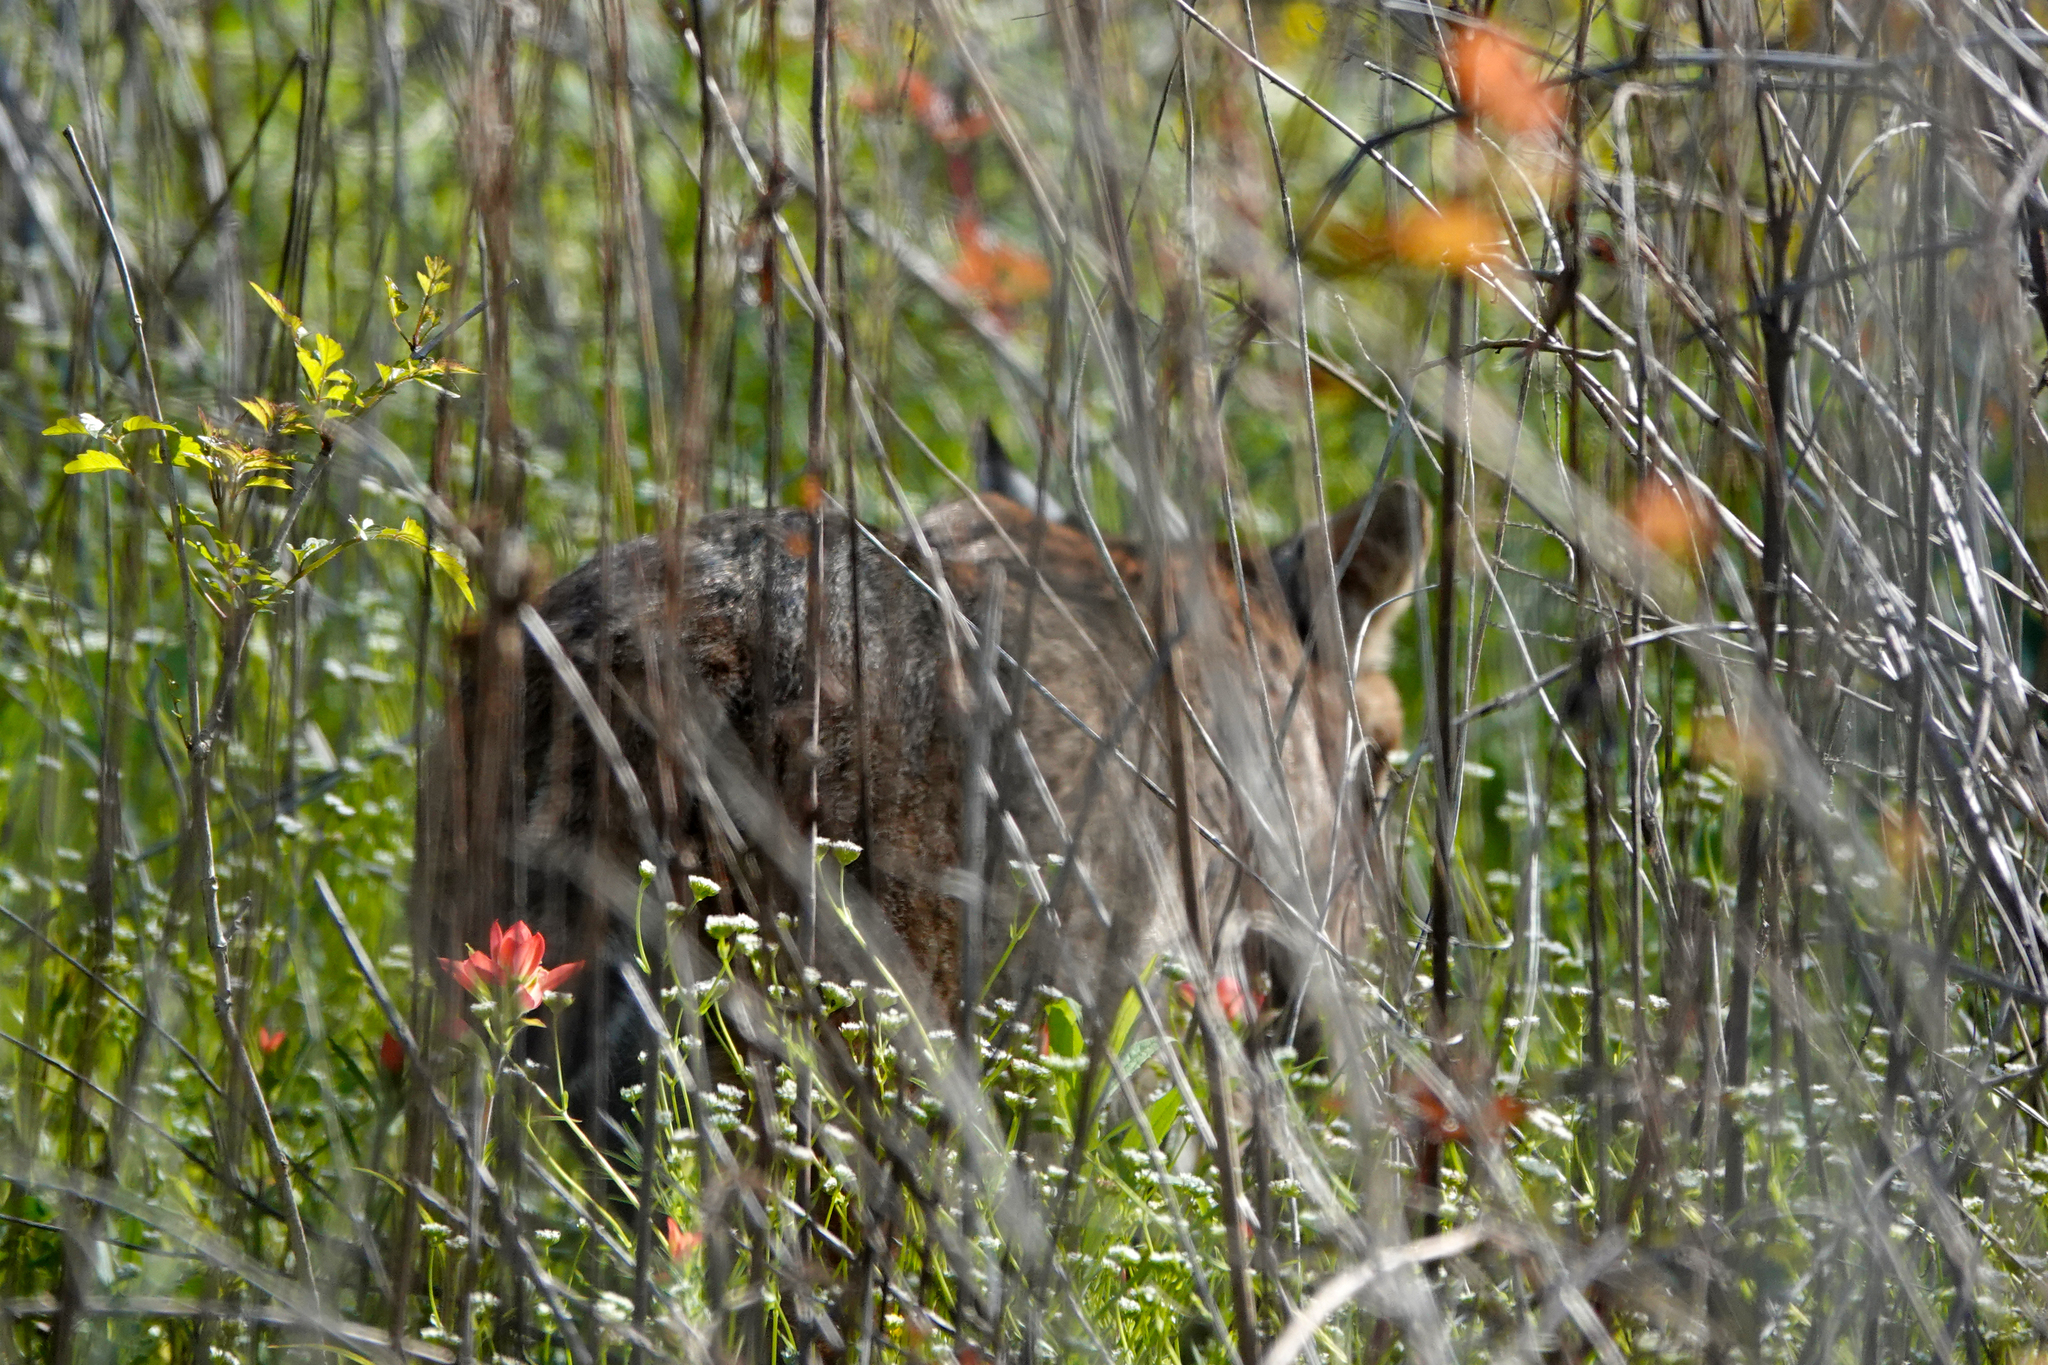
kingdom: Animalia
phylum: Chordata
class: Mammalia
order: Carnivora
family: Felidae
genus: Lynx
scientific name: Lynx rufus
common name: Bobcat
